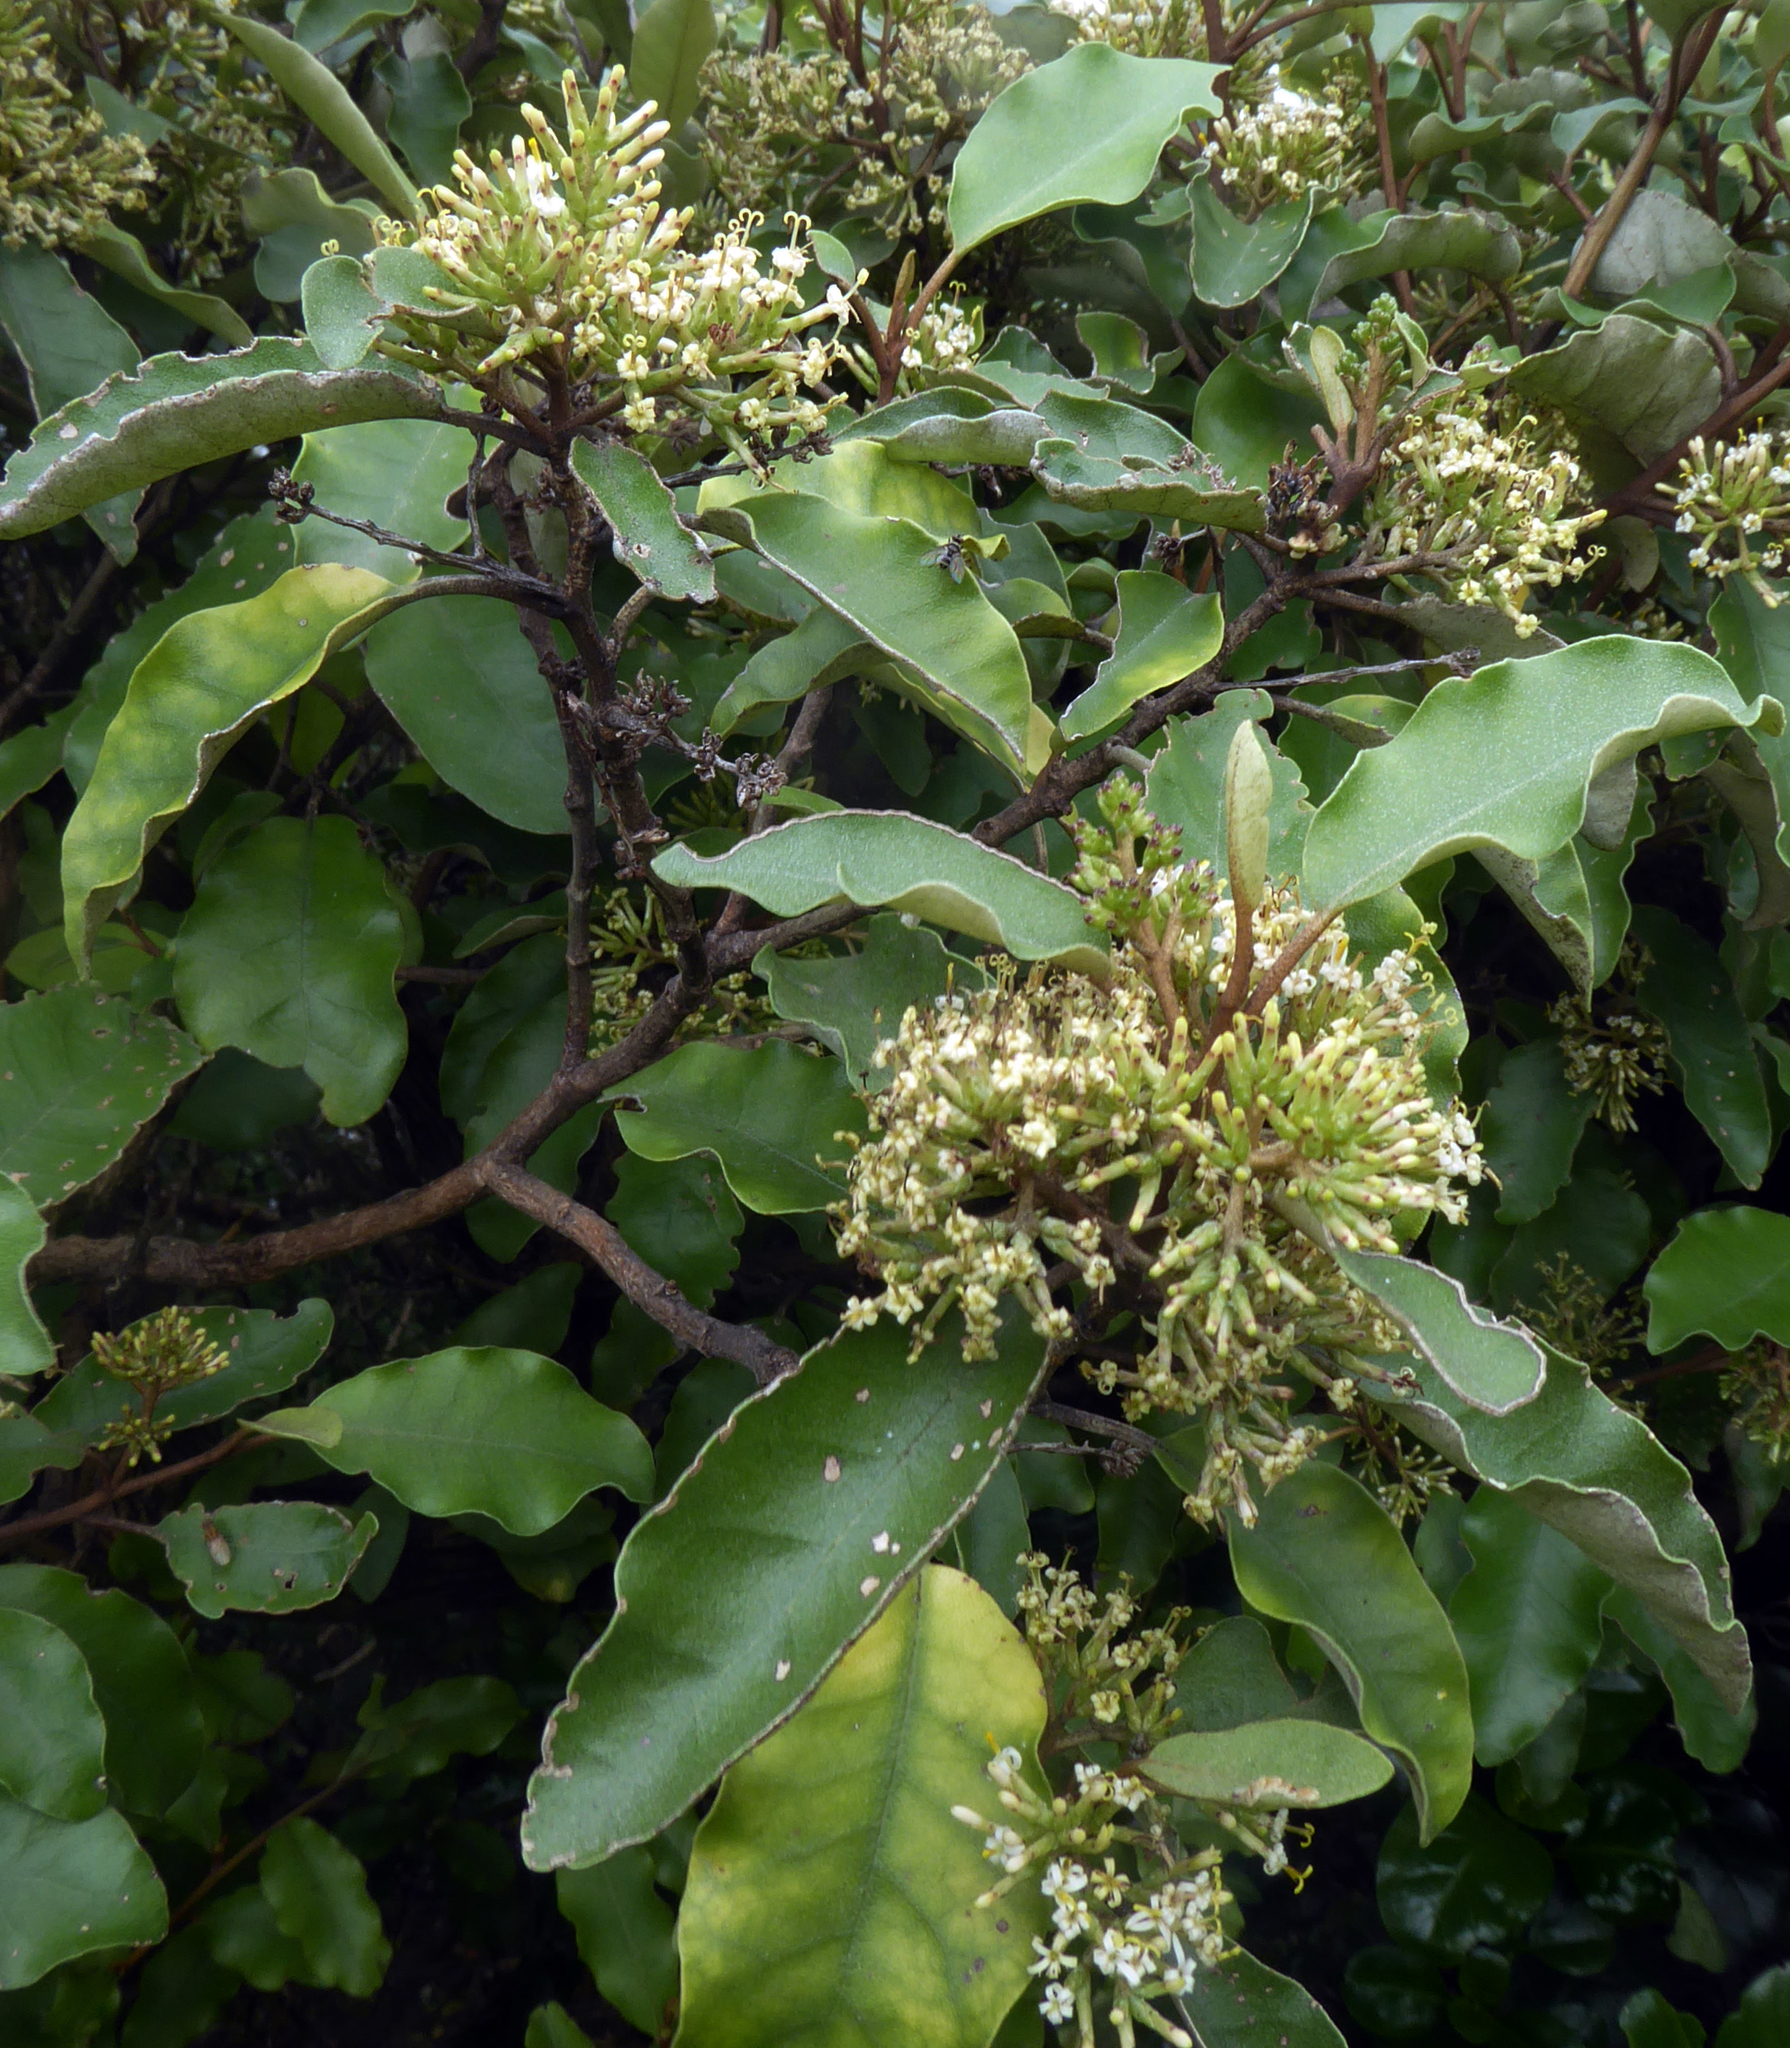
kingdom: Plantae
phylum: Tracheophyta
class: Magnoliopsida
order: Asterales
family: Asteraceae
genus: Olearia
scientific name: Olearia paniculata
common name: Akiraho
